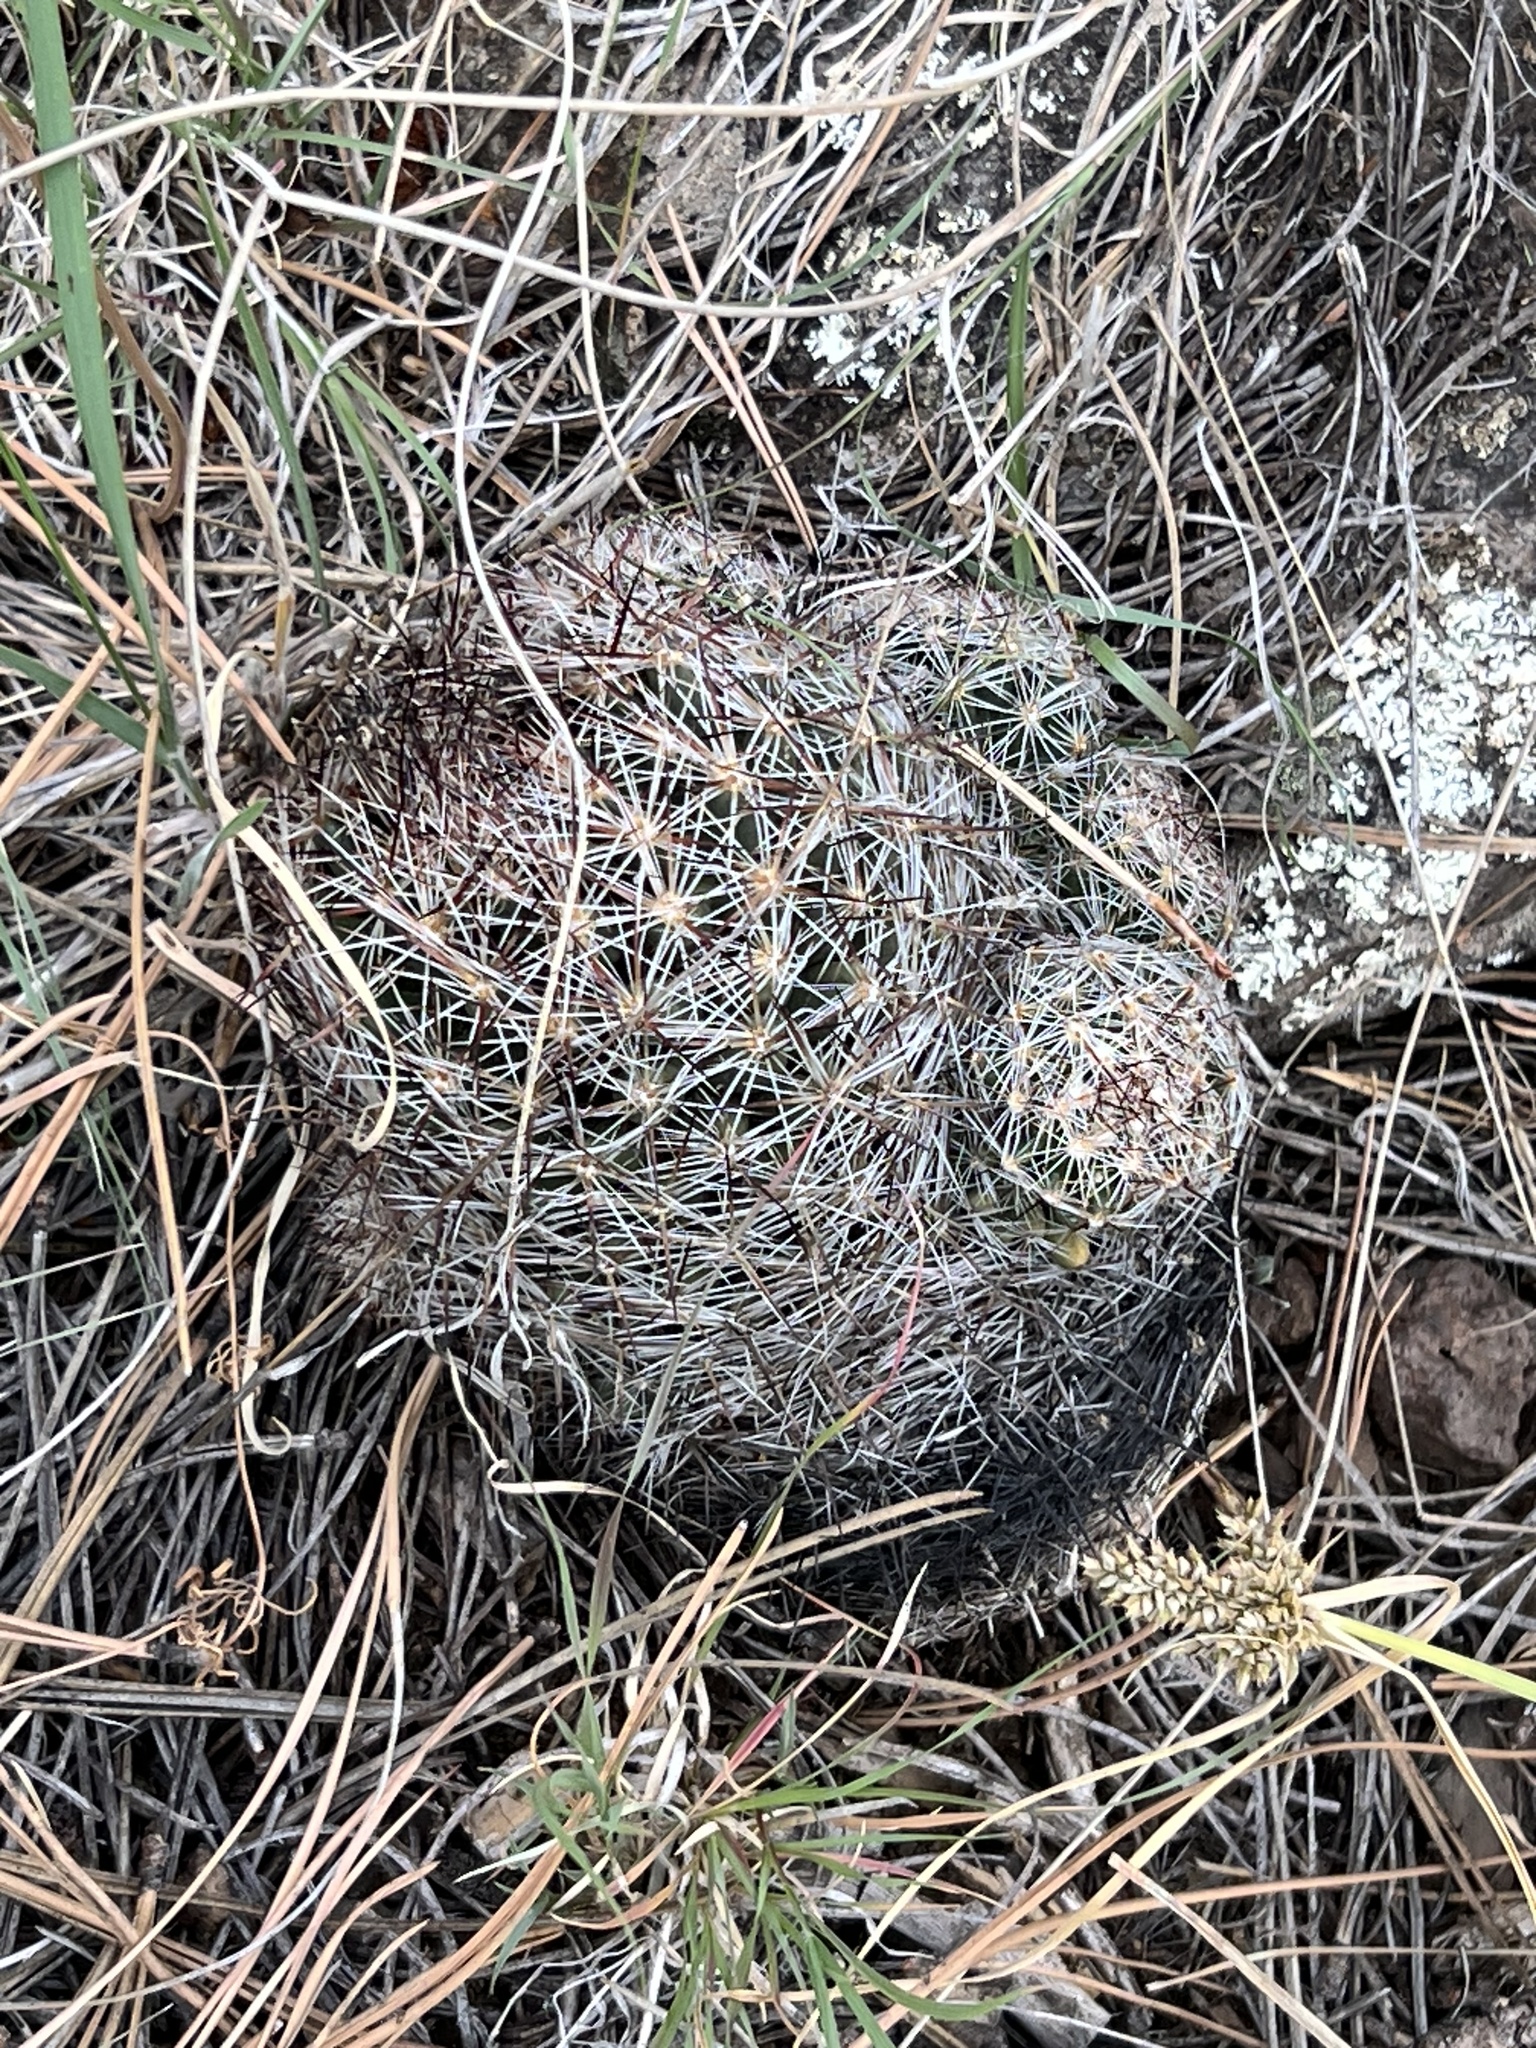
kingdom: Plantae
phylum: Tracheophyta
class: Magnoliopsida
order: Caryophyllales
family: Cactaceae
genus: Pelecyphora
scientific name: Pelecyphora vivipara
